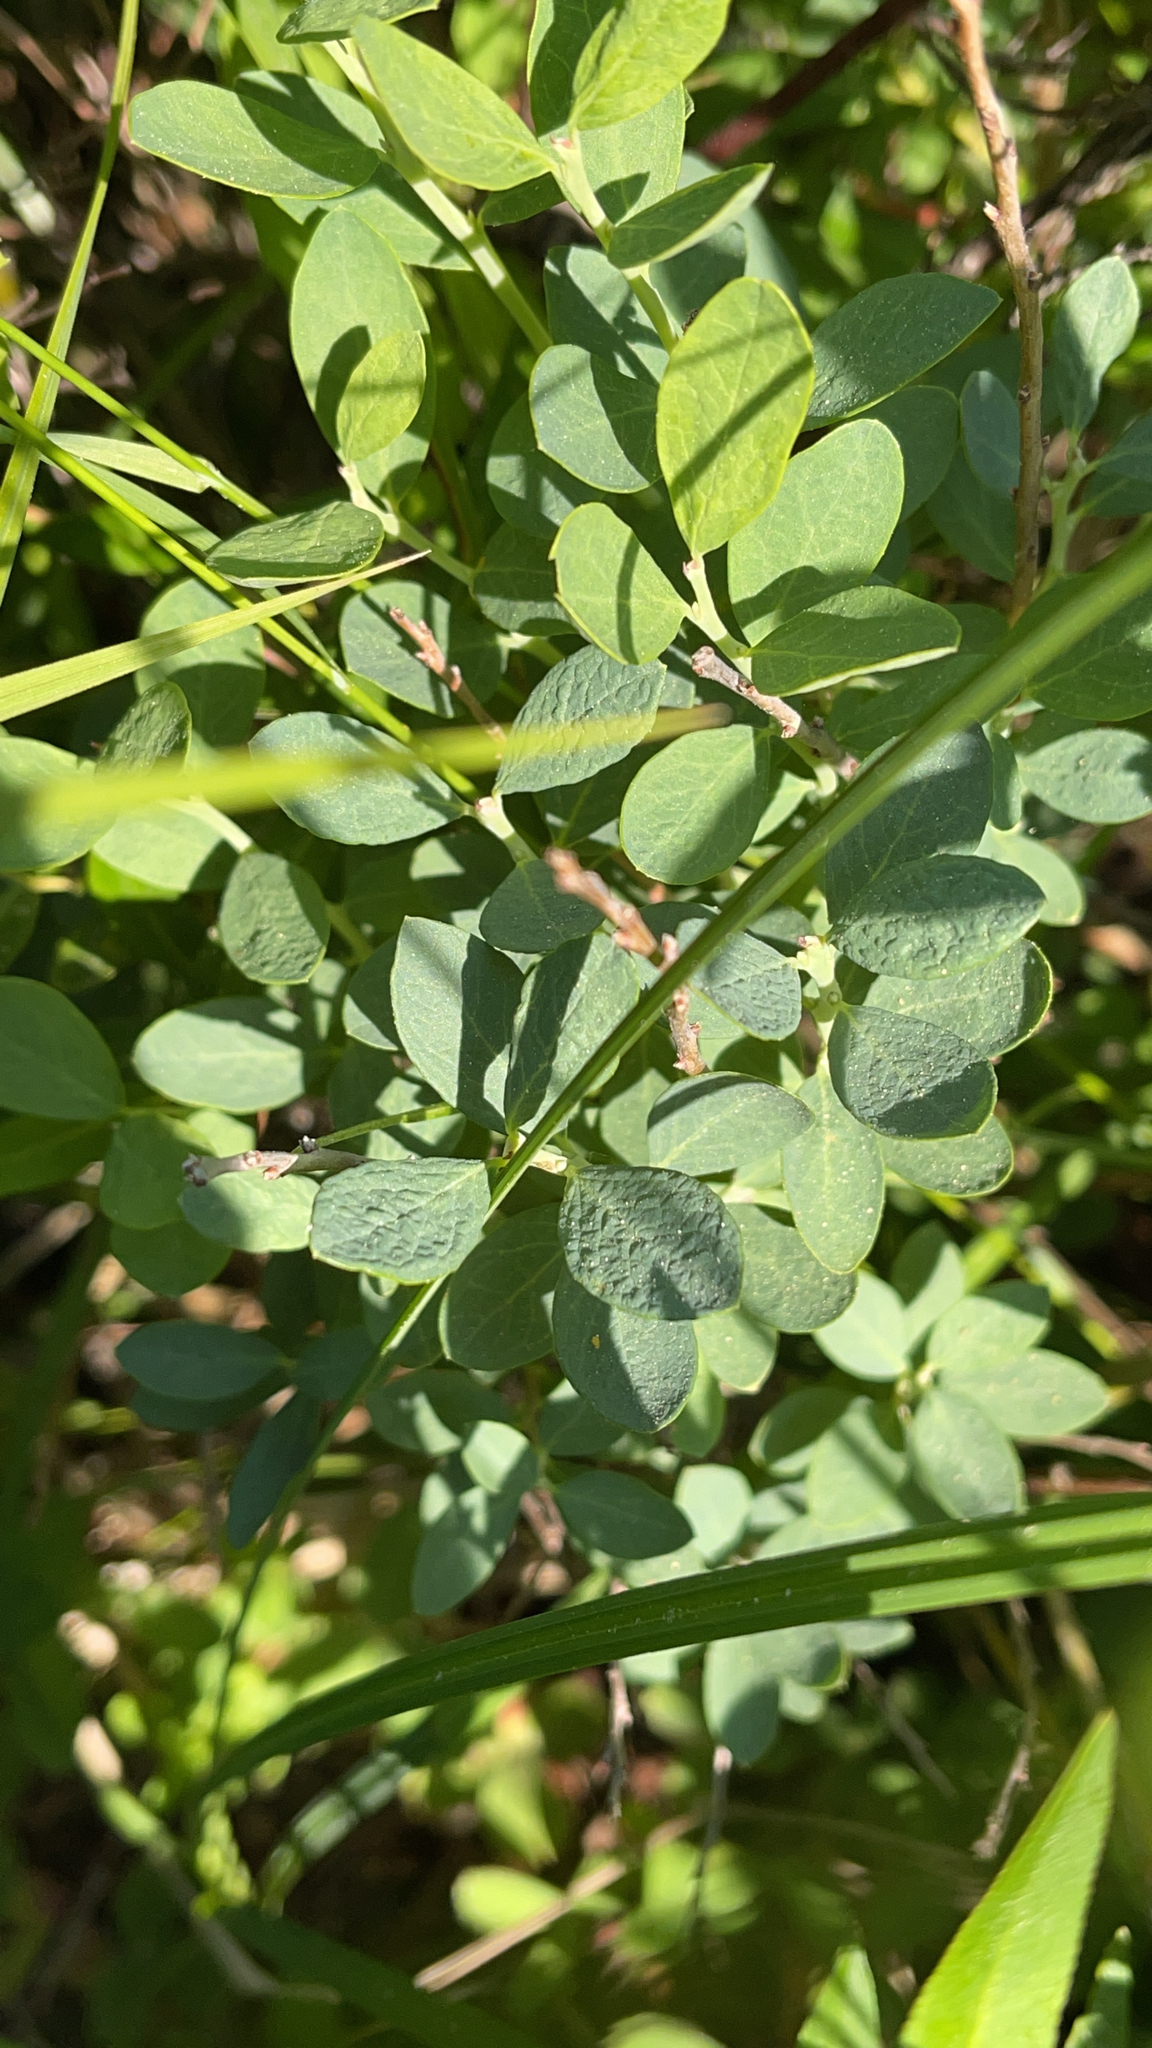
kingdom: Plantae
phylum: Tracheophyta
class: Magnoliopsida
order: Ericales
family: Ericaceae
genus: Vaccinium
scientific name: Vaccinium uliginosum
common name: Bog bilberry
